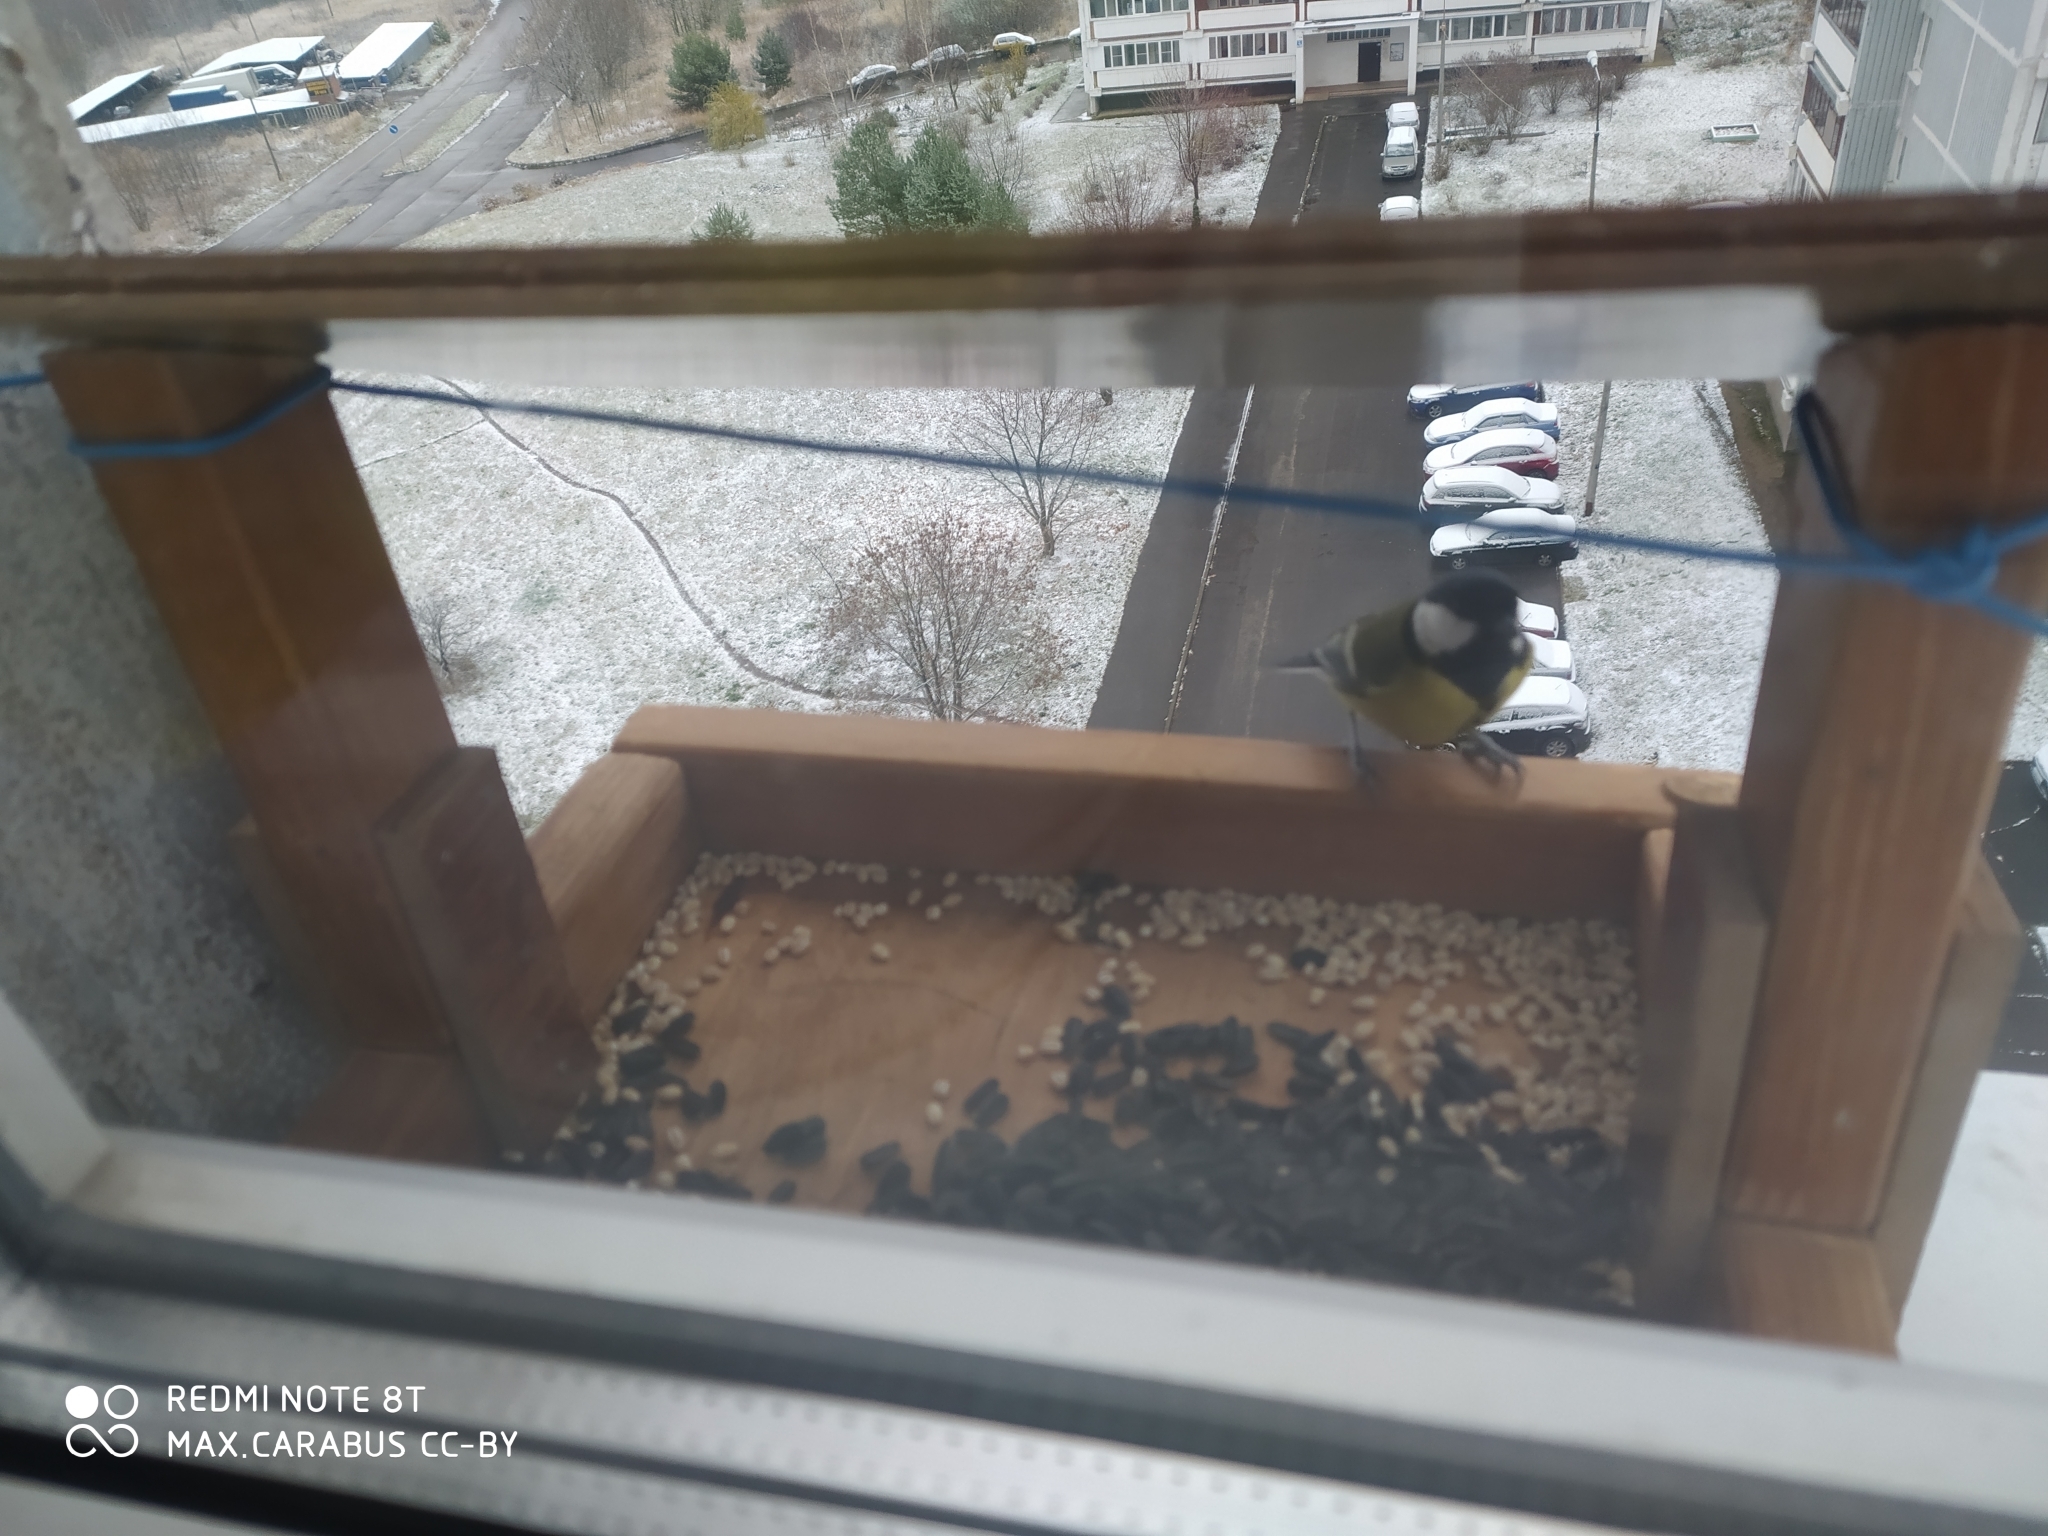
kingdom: Animalia
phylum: Chordata
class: Aves
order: Passeriformes
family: Paridae
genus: Parus
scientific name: Parus major
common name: Great tit
